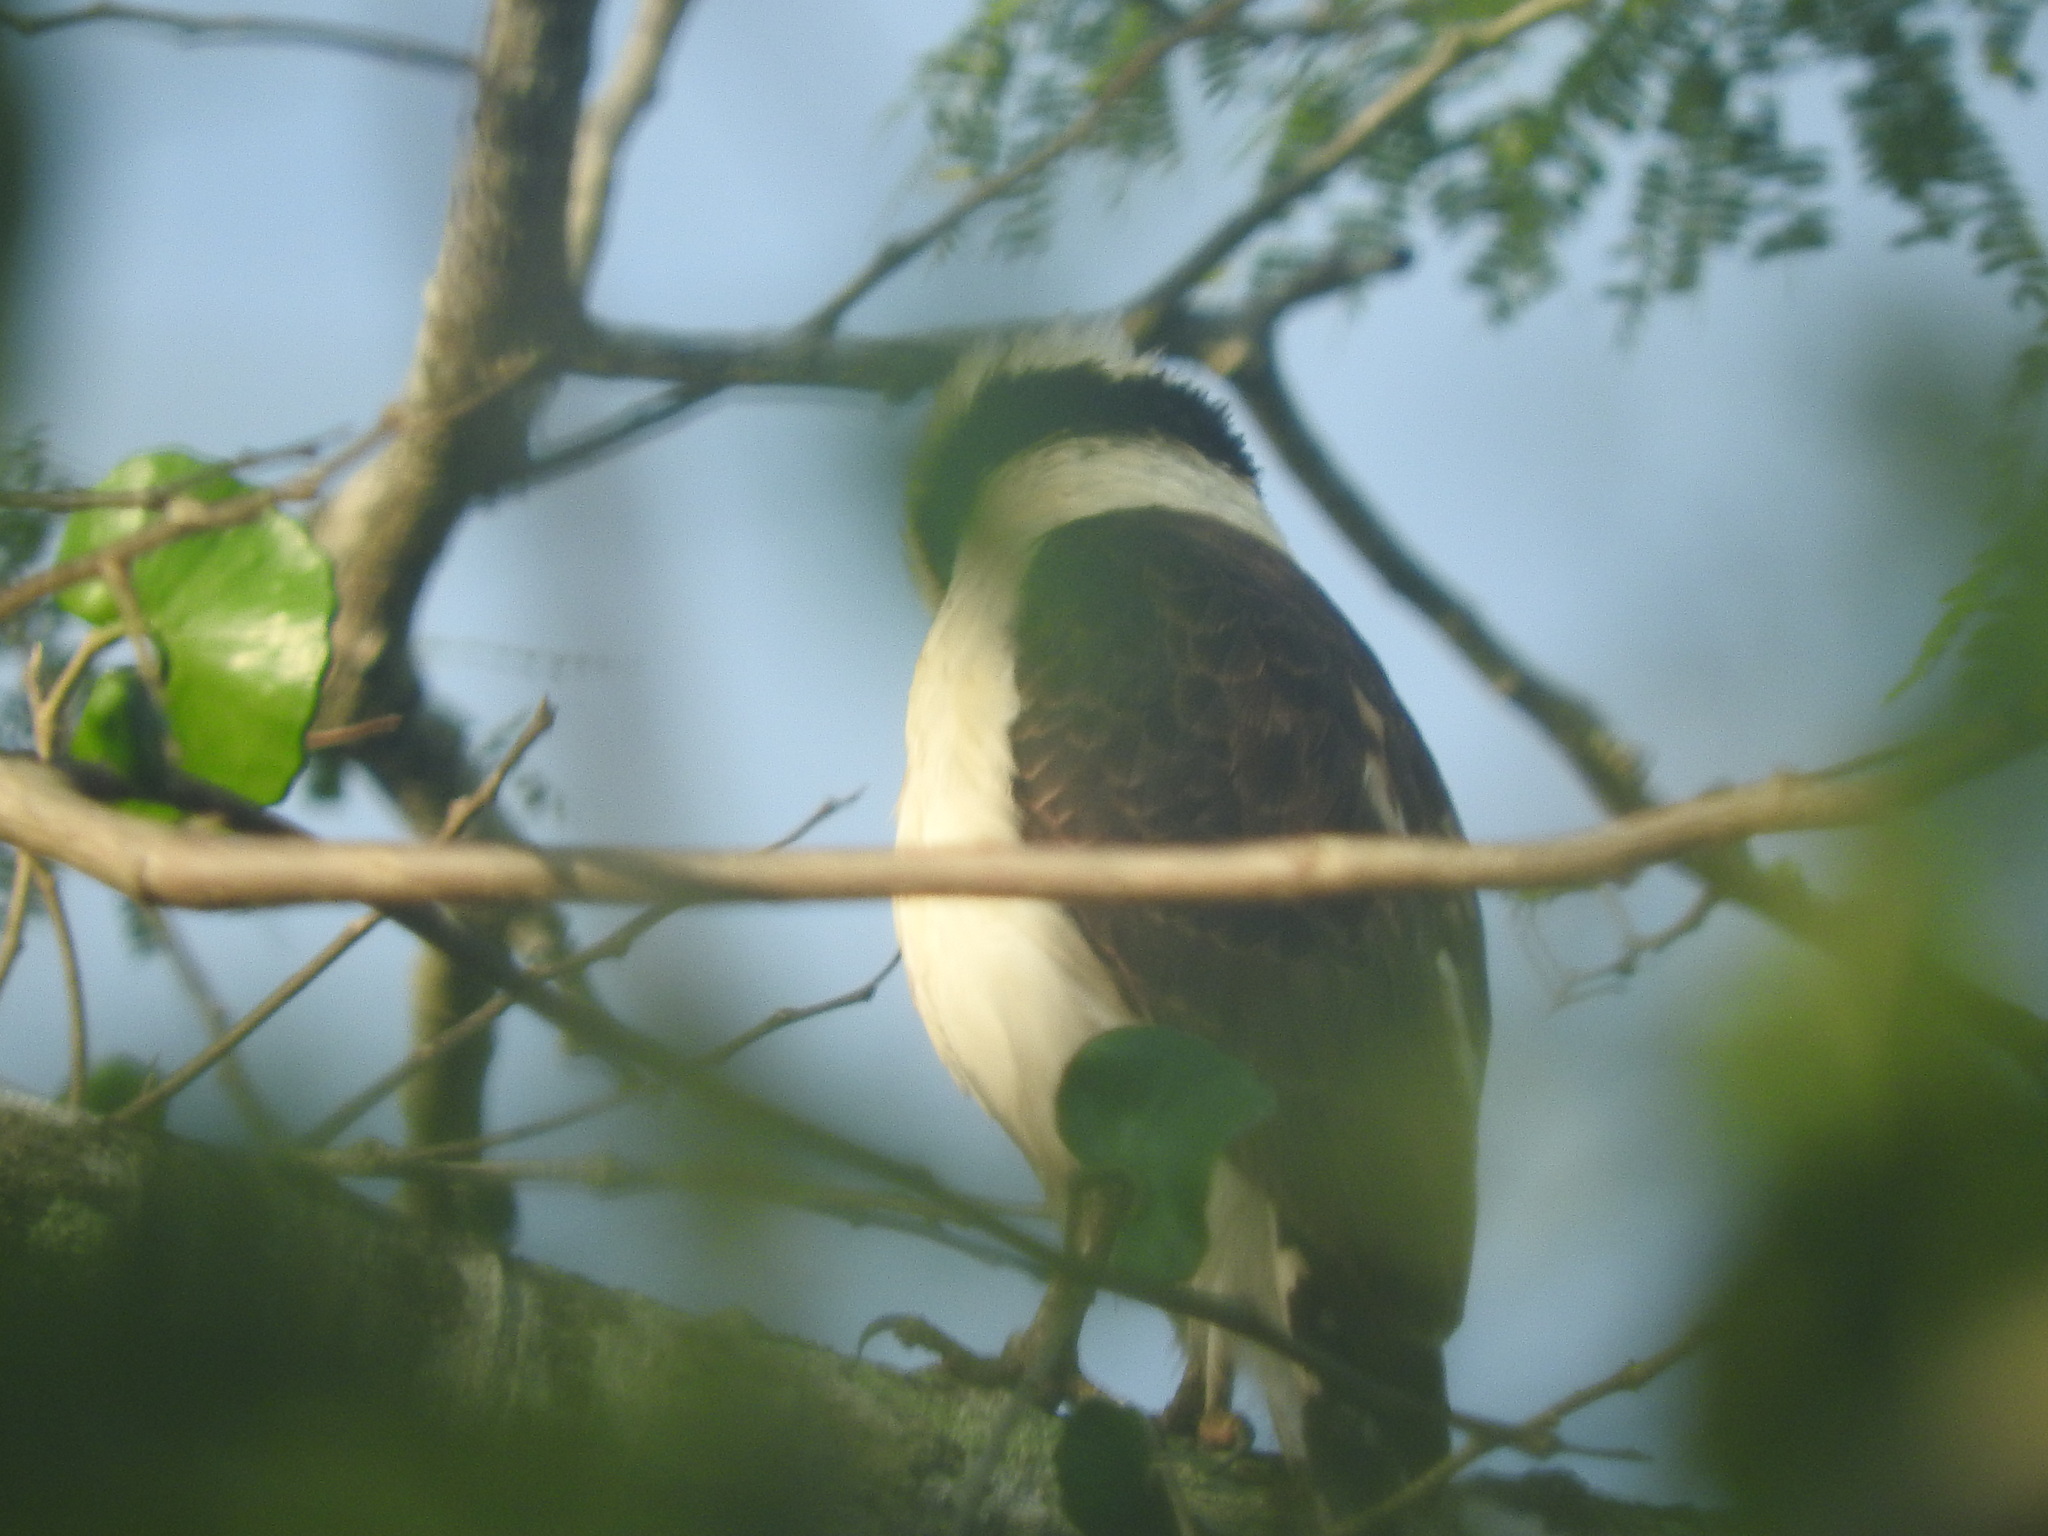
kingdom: Animalia
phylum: Chordata
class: Aves
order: Falconiformes
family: Falconidae
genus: Herpetotheres
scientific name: Herpetotheres cachinnans
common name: Laughing falcon
